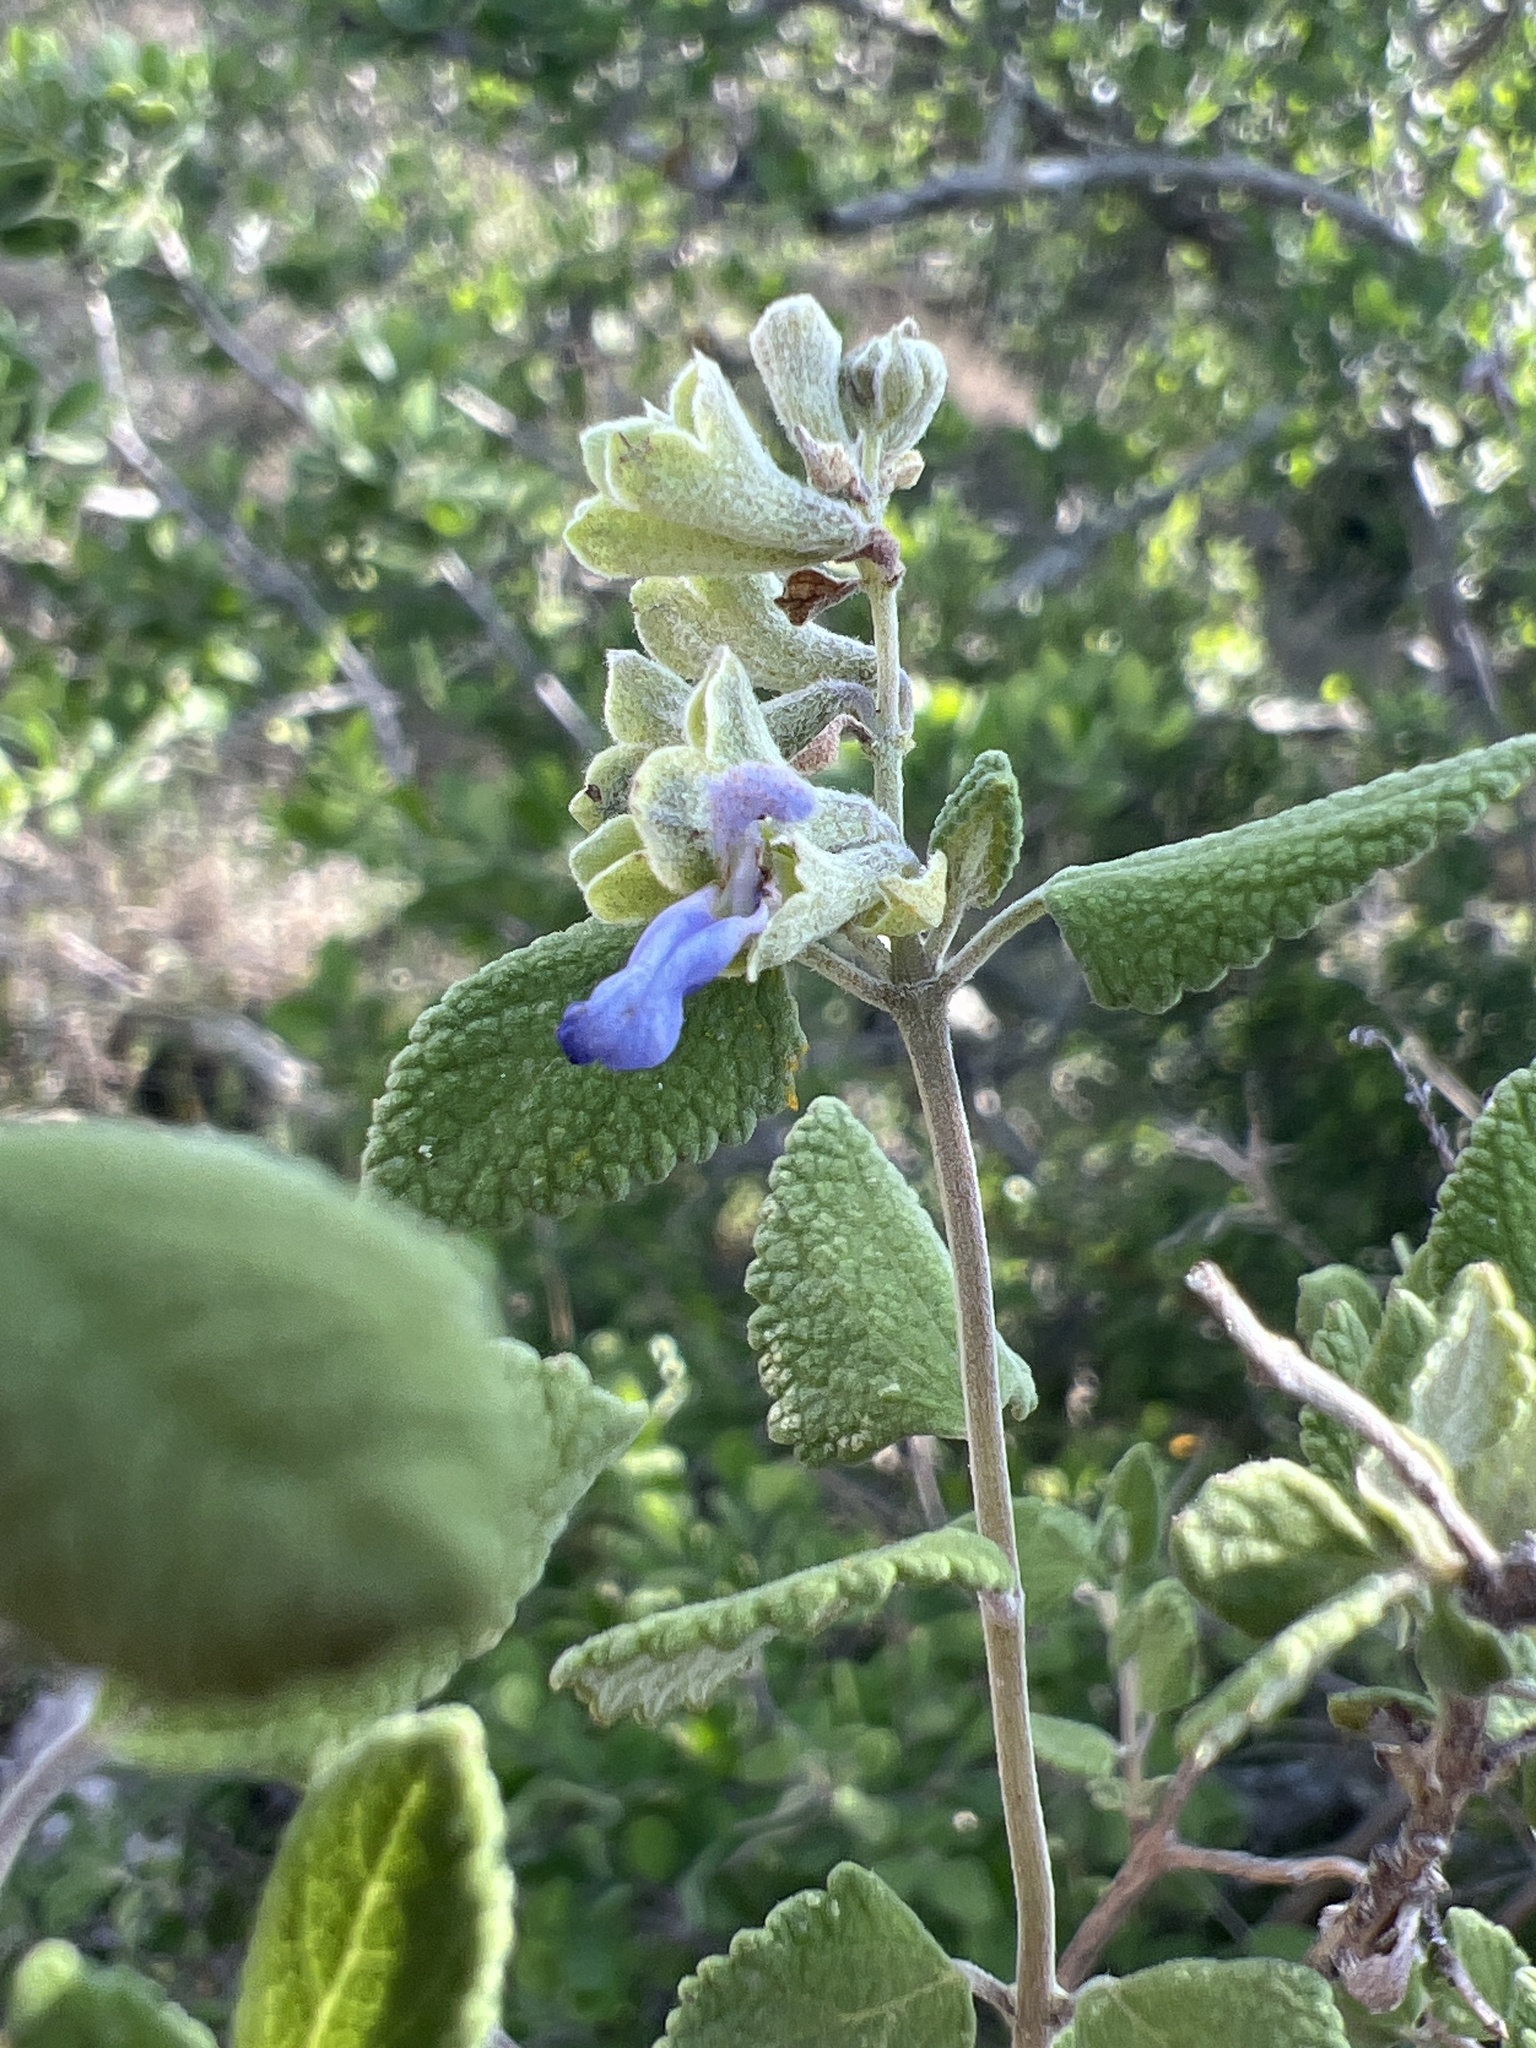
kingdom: Plantae
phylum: Tracheophyta
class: Magnoliopsida
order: Lamiales
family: Lamiaceae
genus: Salvia
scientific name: Salvia ballotiflora
